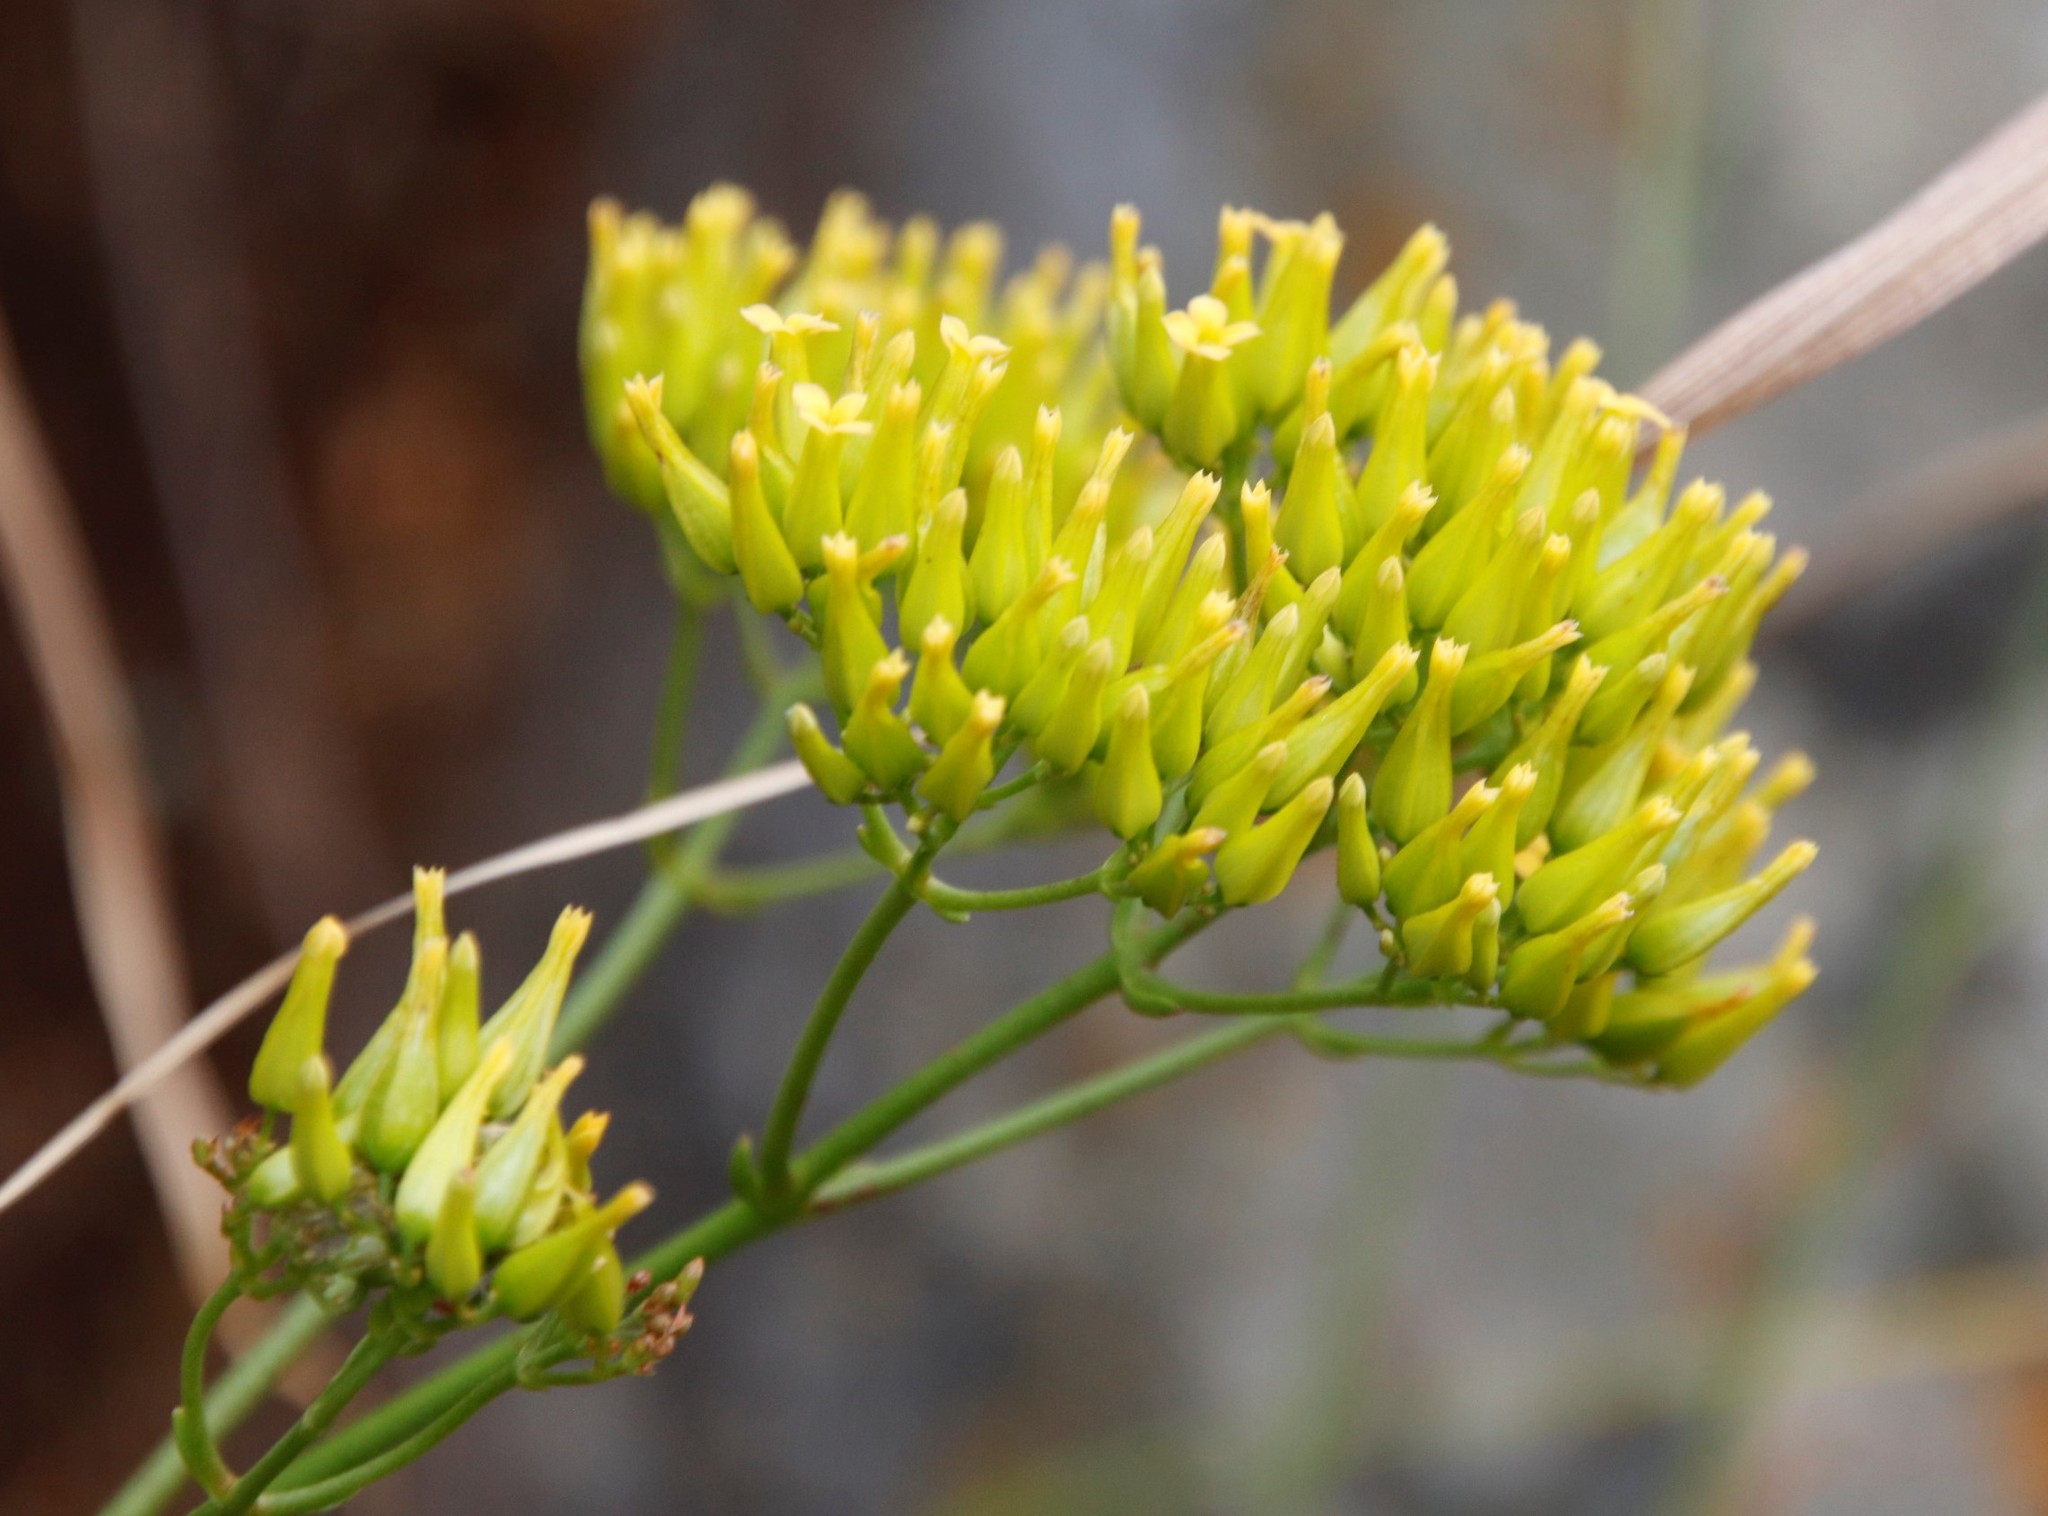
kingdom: Plantae
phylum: Tracheophyta
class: Magnoliopsida
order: Saxifragales
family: Crassulaceae
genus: Kalanchoe
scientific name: Kalanchoe brachyloba
